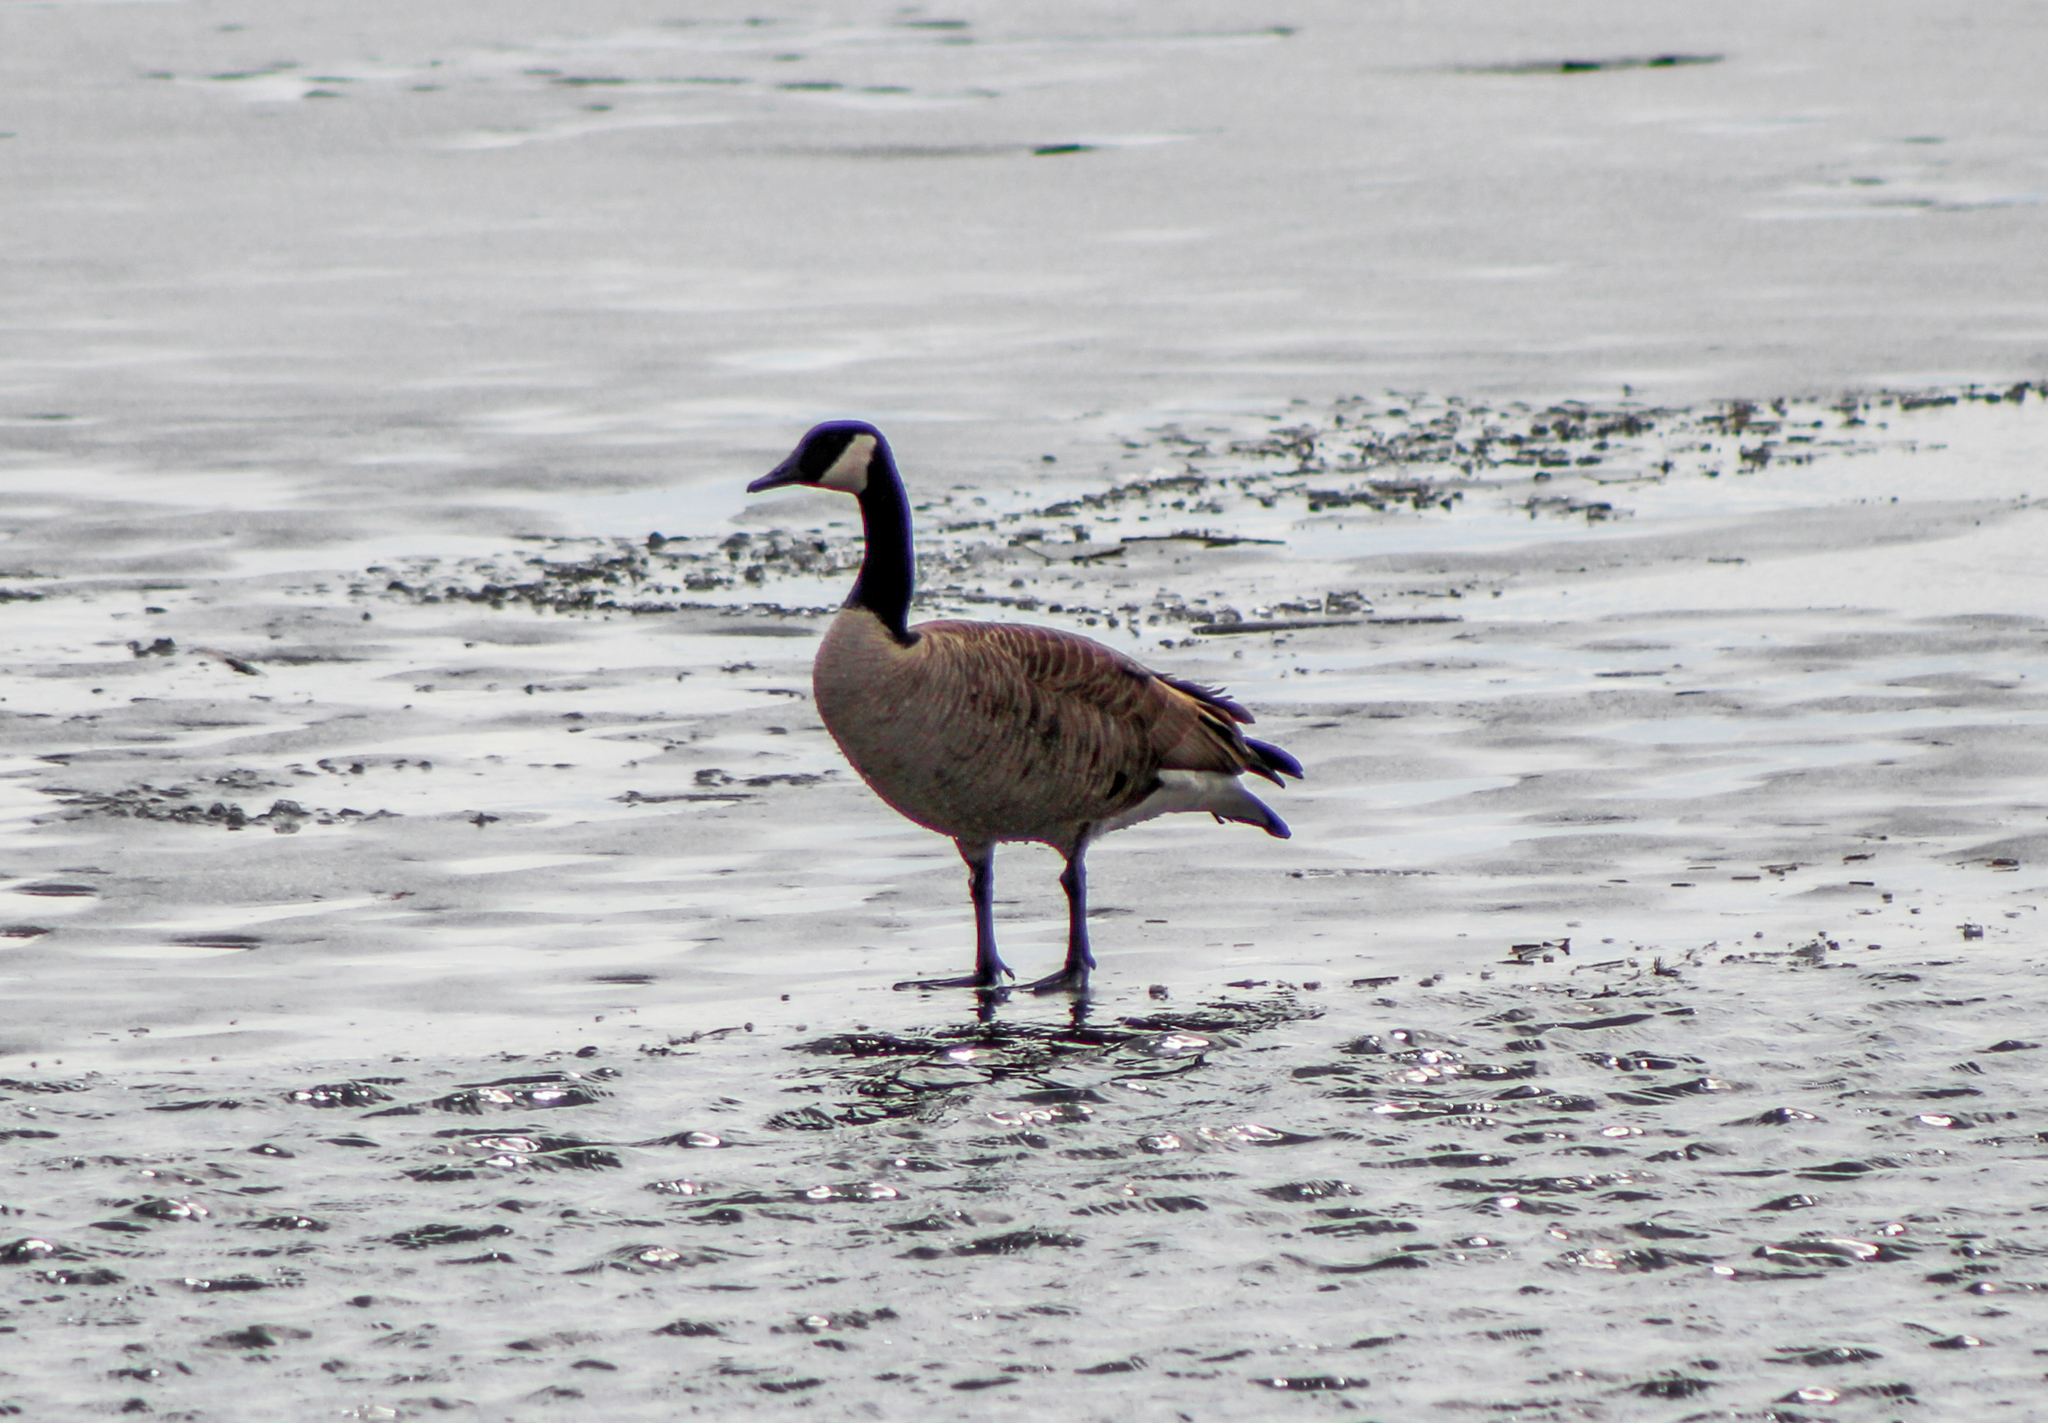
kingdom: Animalia
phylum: Chordata
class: Aves
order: Anseriformes
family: Anatidae
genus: Branta
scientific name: Branta canadensis
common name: Canada goose
